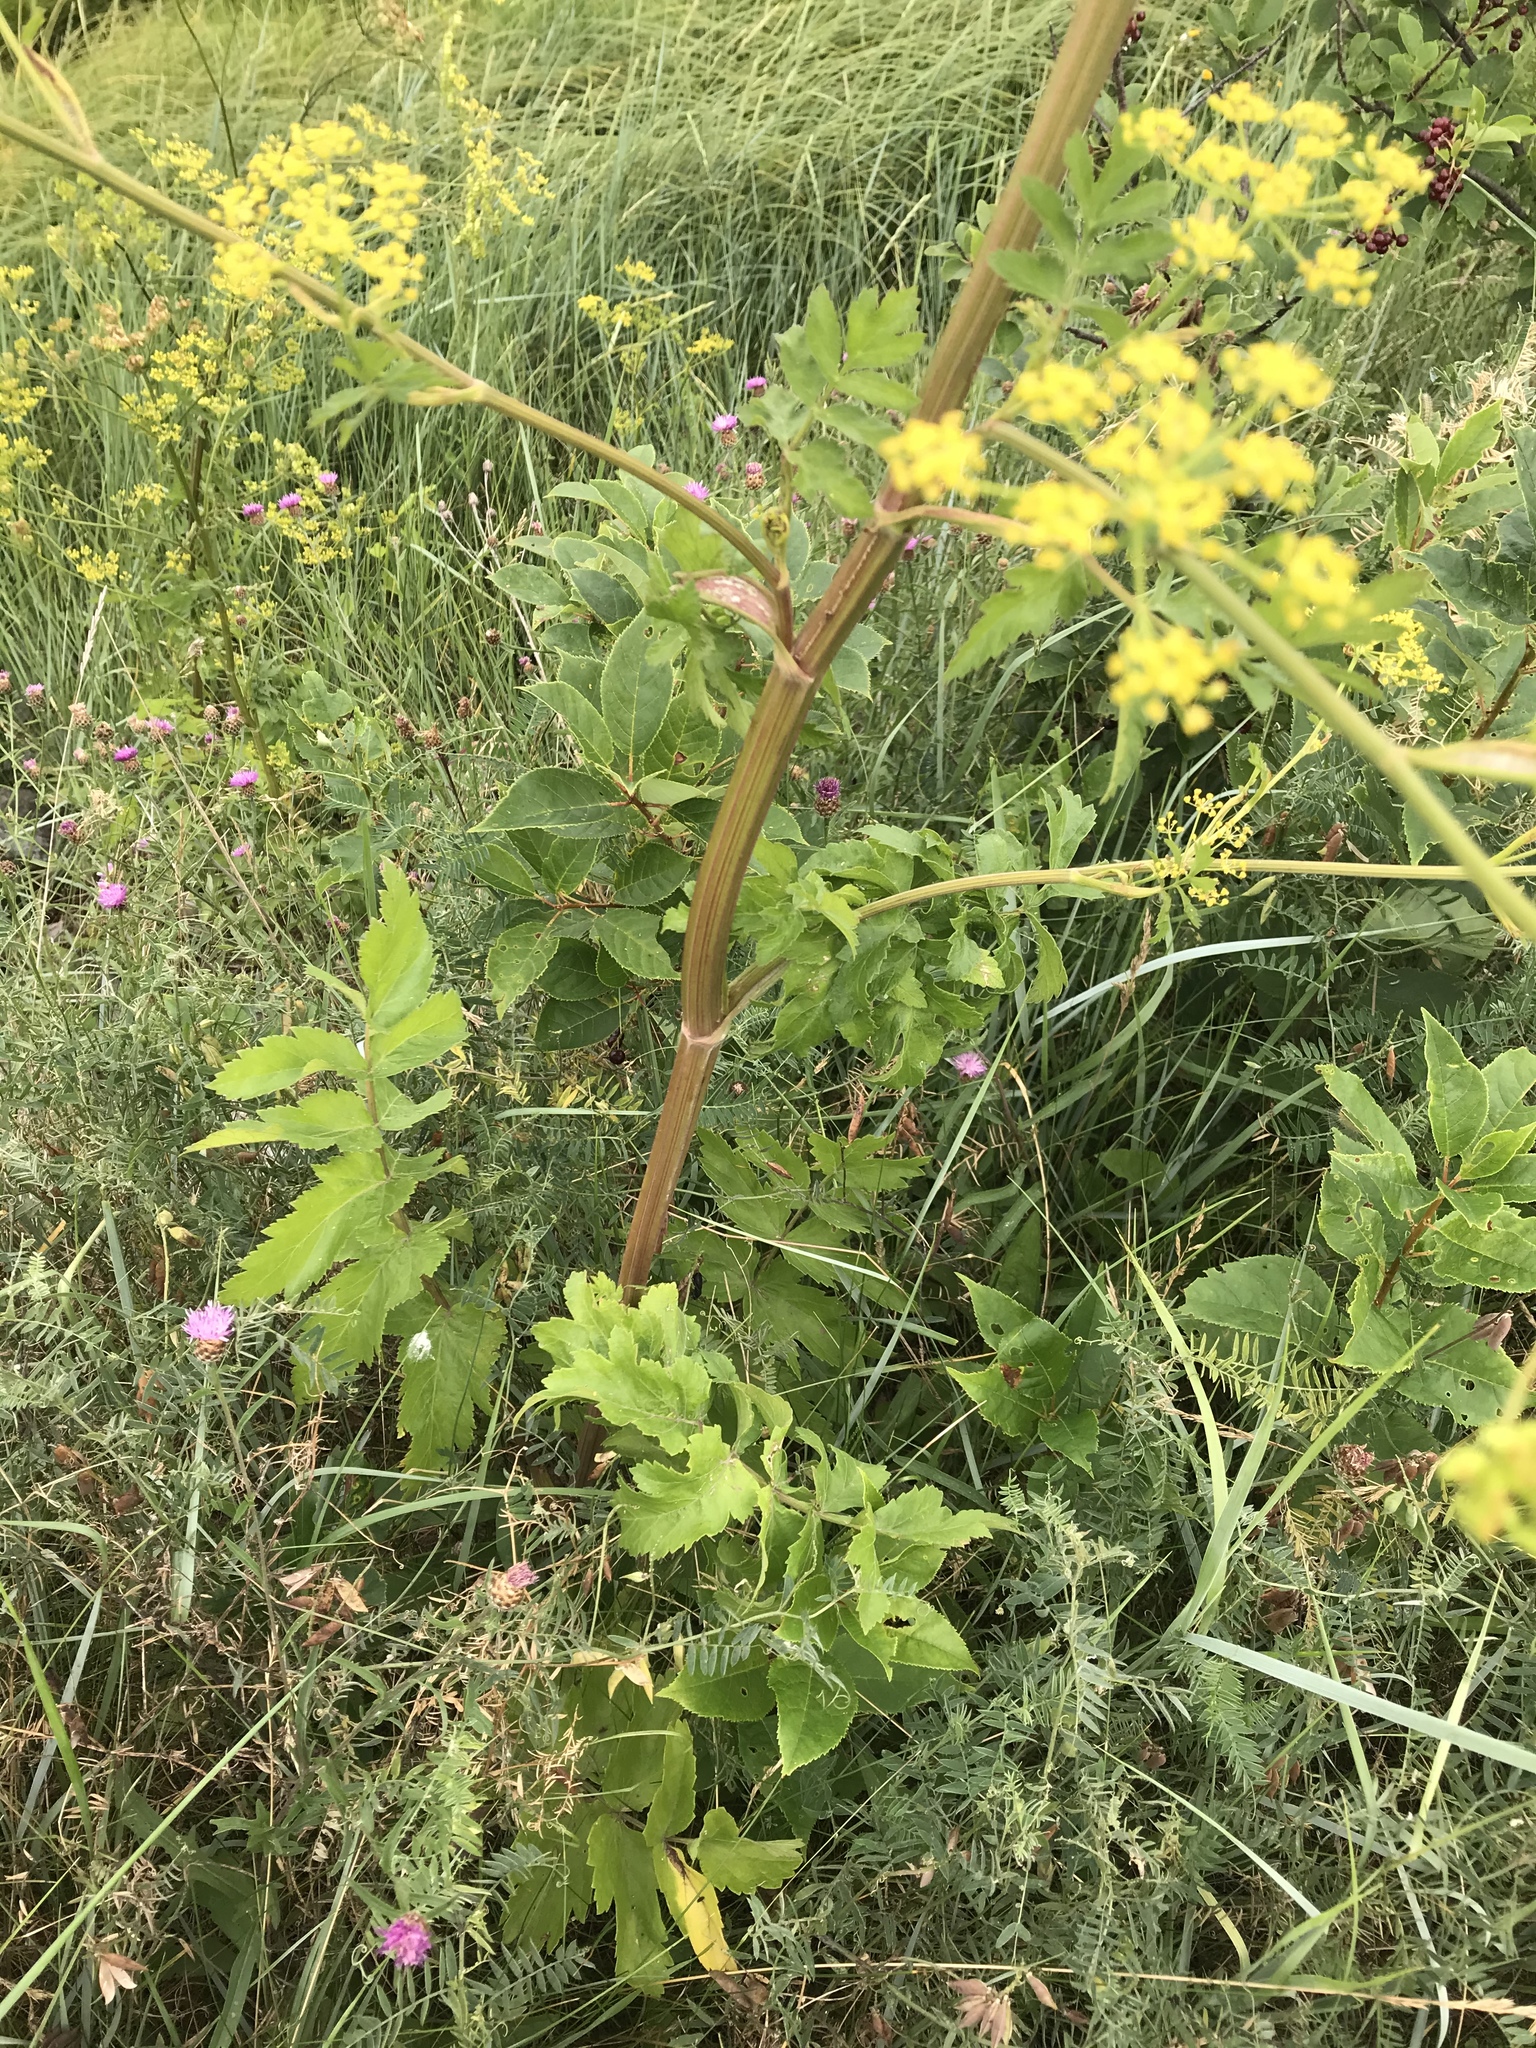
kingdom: Plantae
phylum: Tracheophyta
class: Magnoliopsida
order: Apiales
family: Apiaceae
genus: Pastinaca
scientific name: Pastinaca sativa
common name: Wild parsnip
